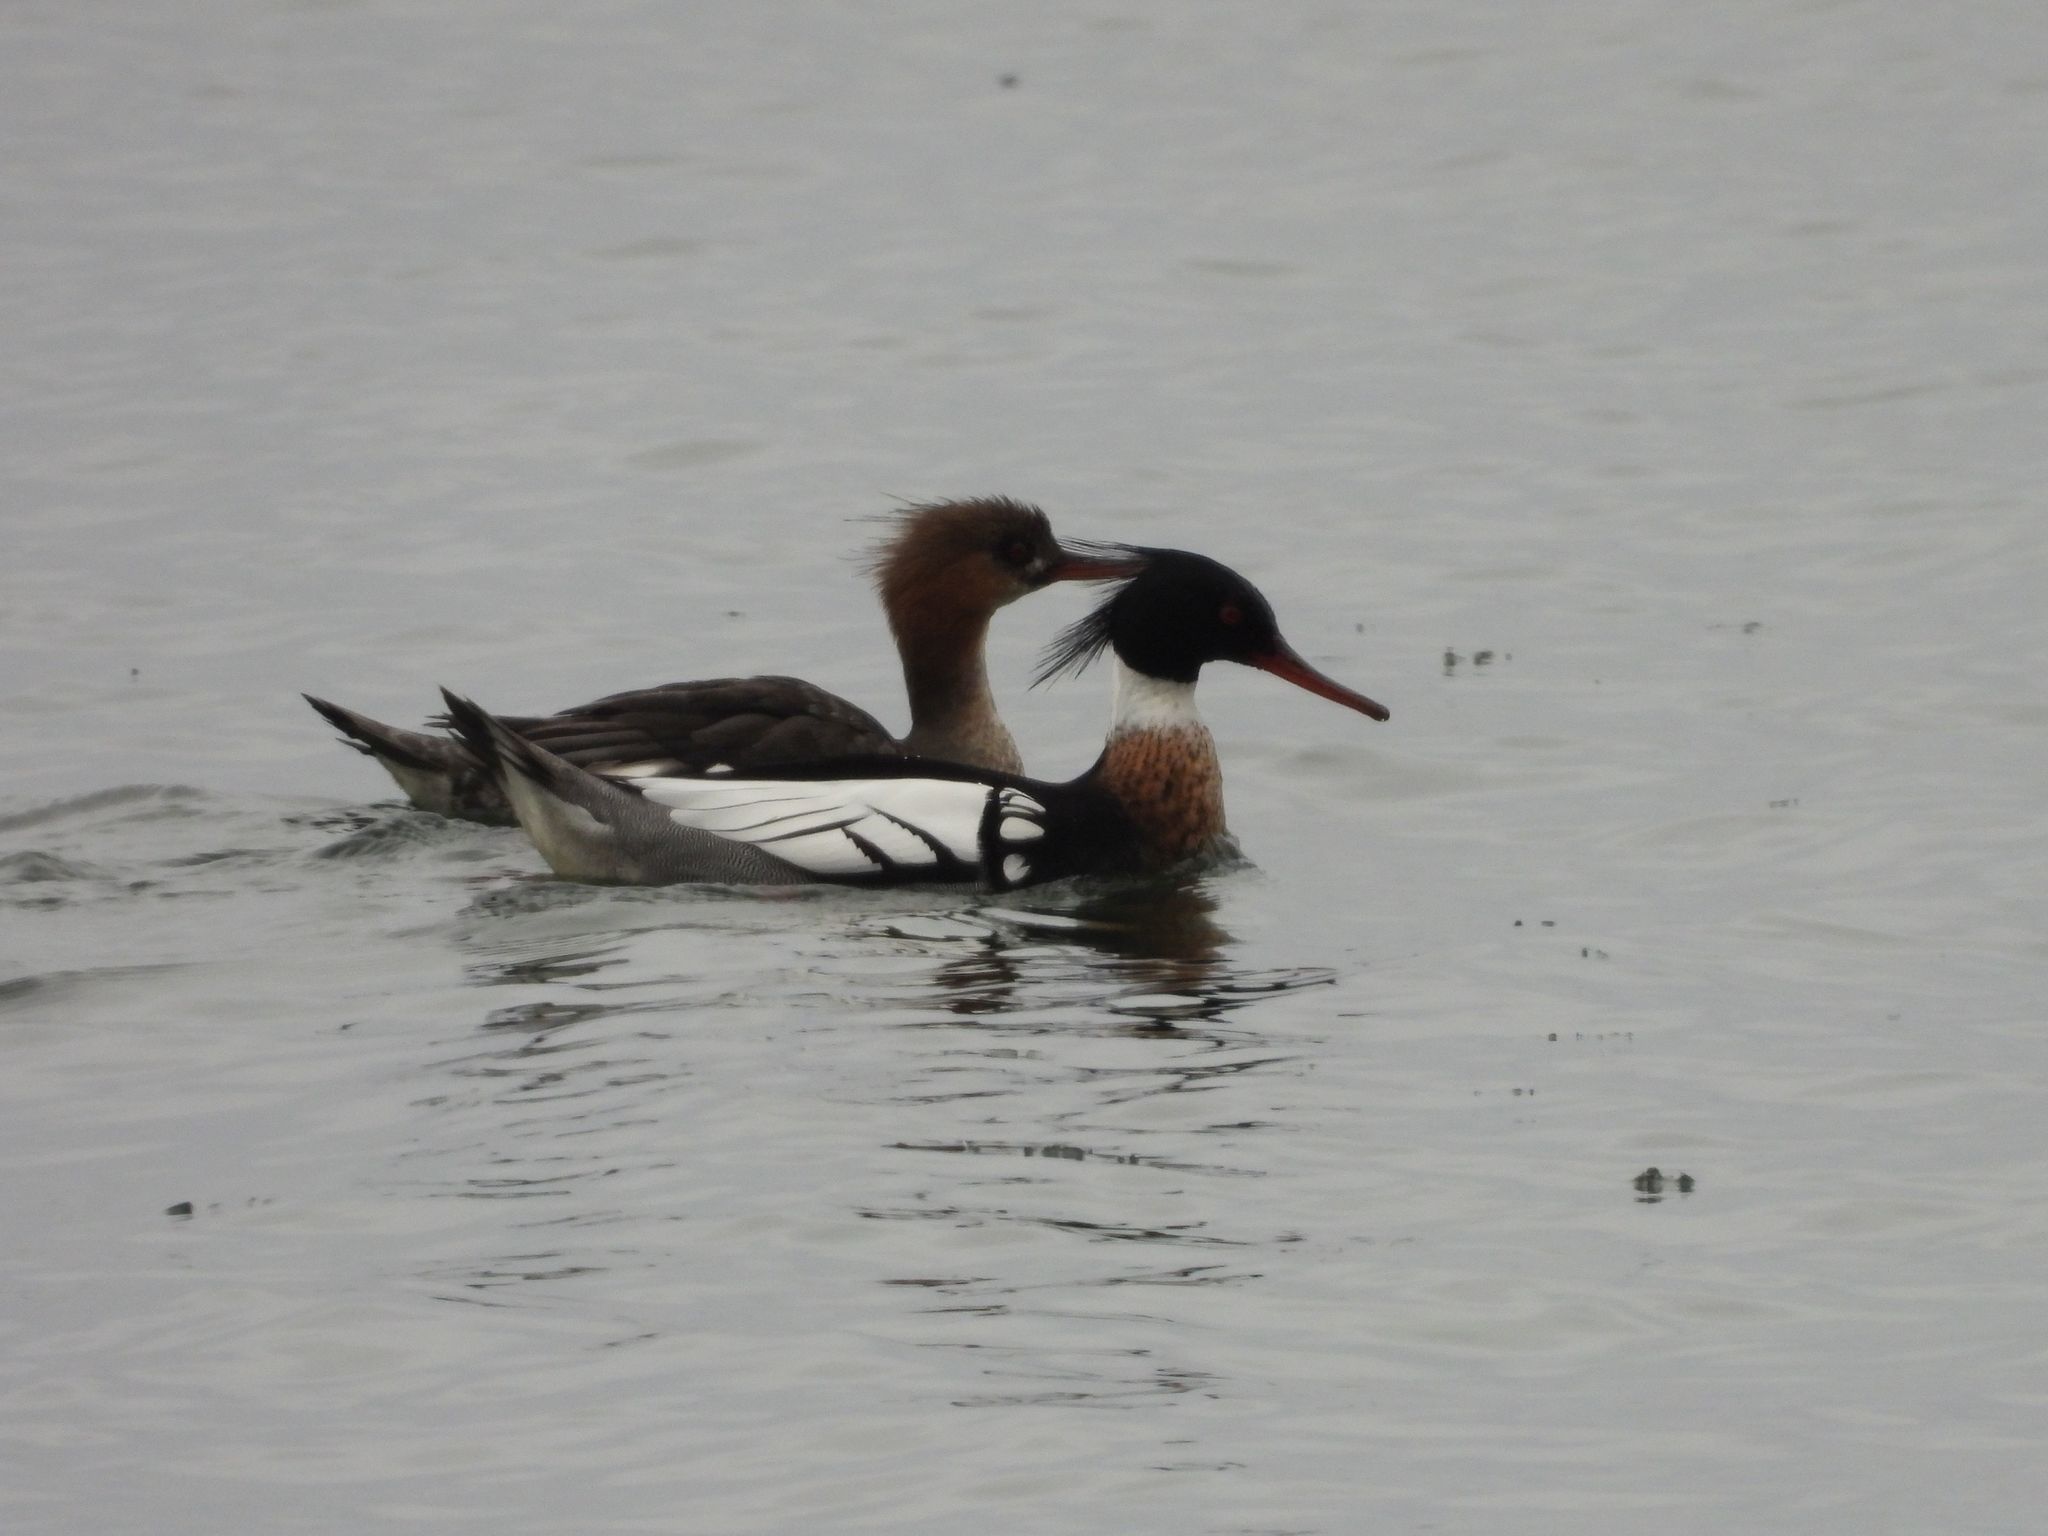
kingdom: Animalia
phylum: Chordata
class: Aves
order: Anseriformes
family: Anatidae
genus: Mergus
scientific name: Mergus serrator
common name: Red-breasted merganser
